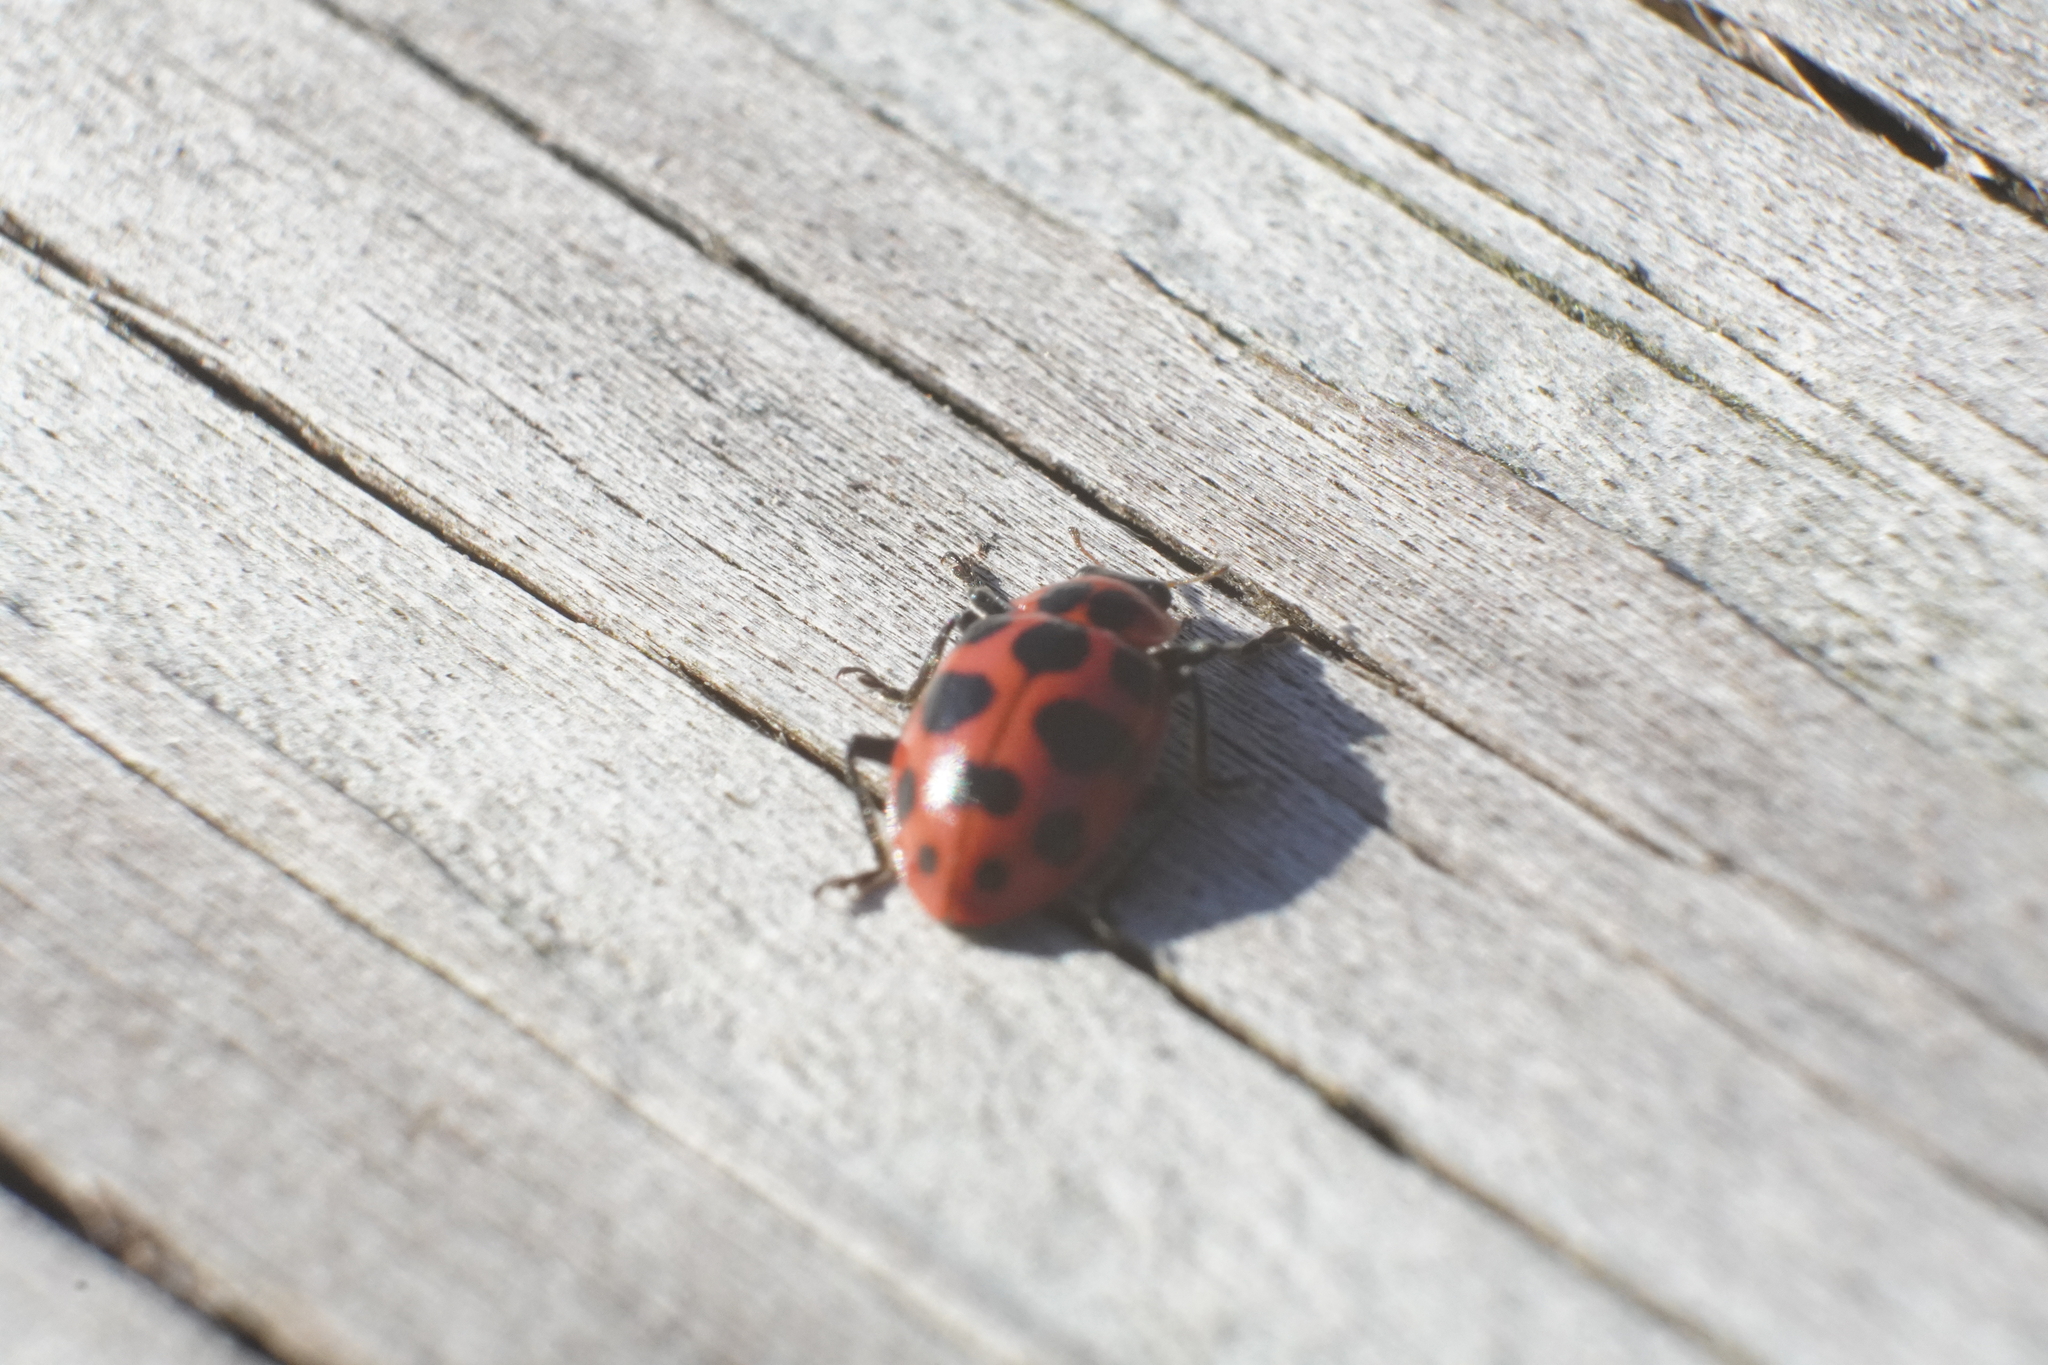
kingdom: Animalia
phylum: Arthropoda
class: Insecta
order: Coleoptera
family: Coccinellidae
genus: Coleomegilla
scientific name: Coleomegilla maculata
